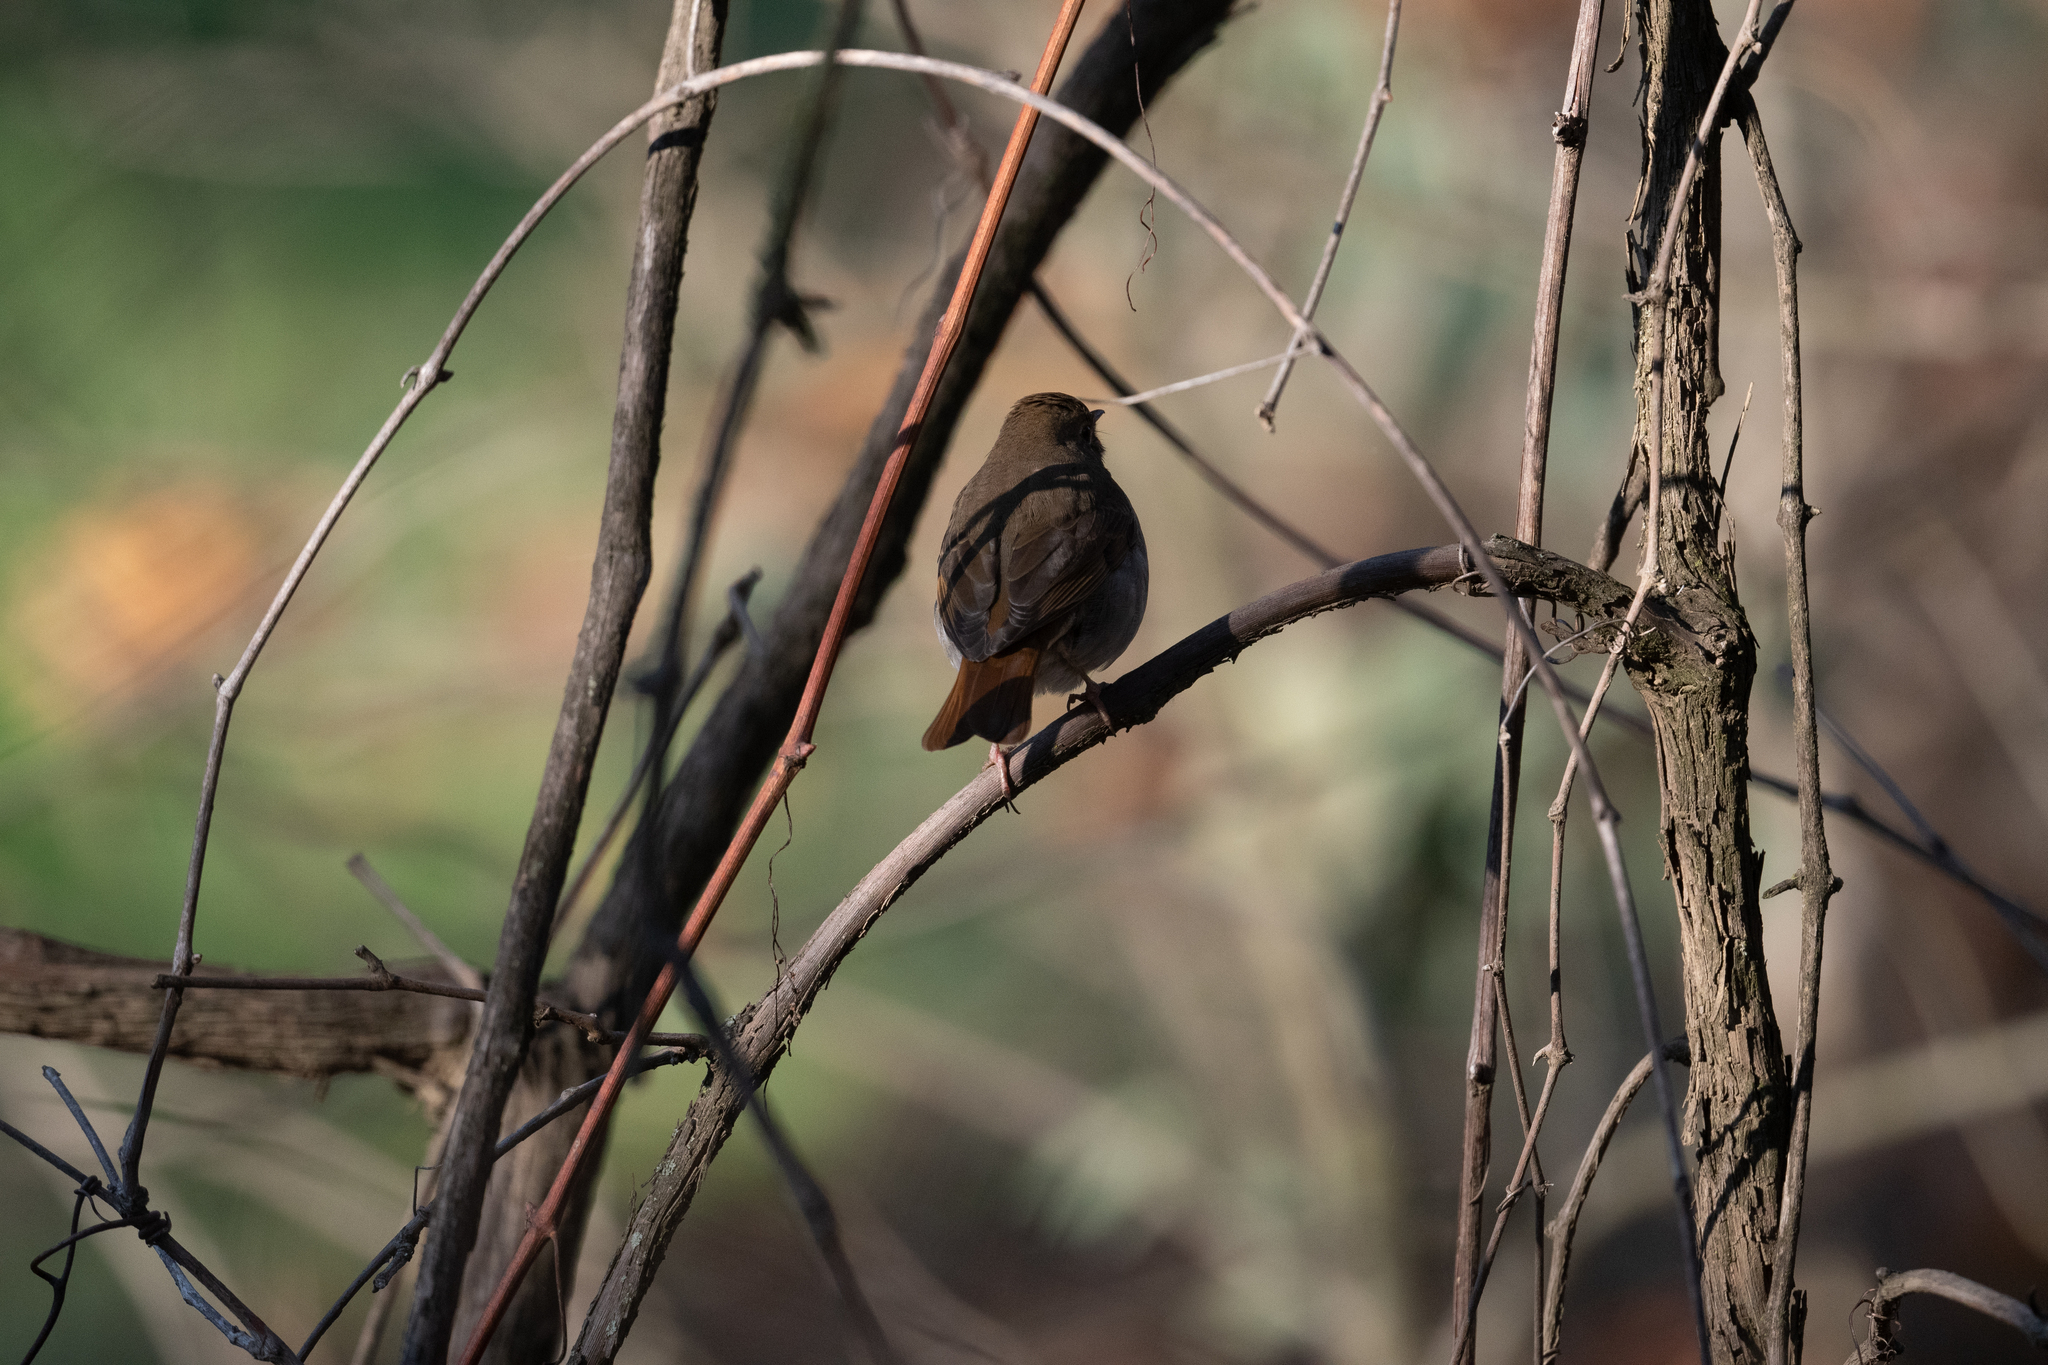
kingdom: Animalia
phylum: Chordata
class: Aves
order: Passeriformes
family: Turdidae
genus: Catharus
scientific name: Catharus guttatus
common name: Hermit thrush
